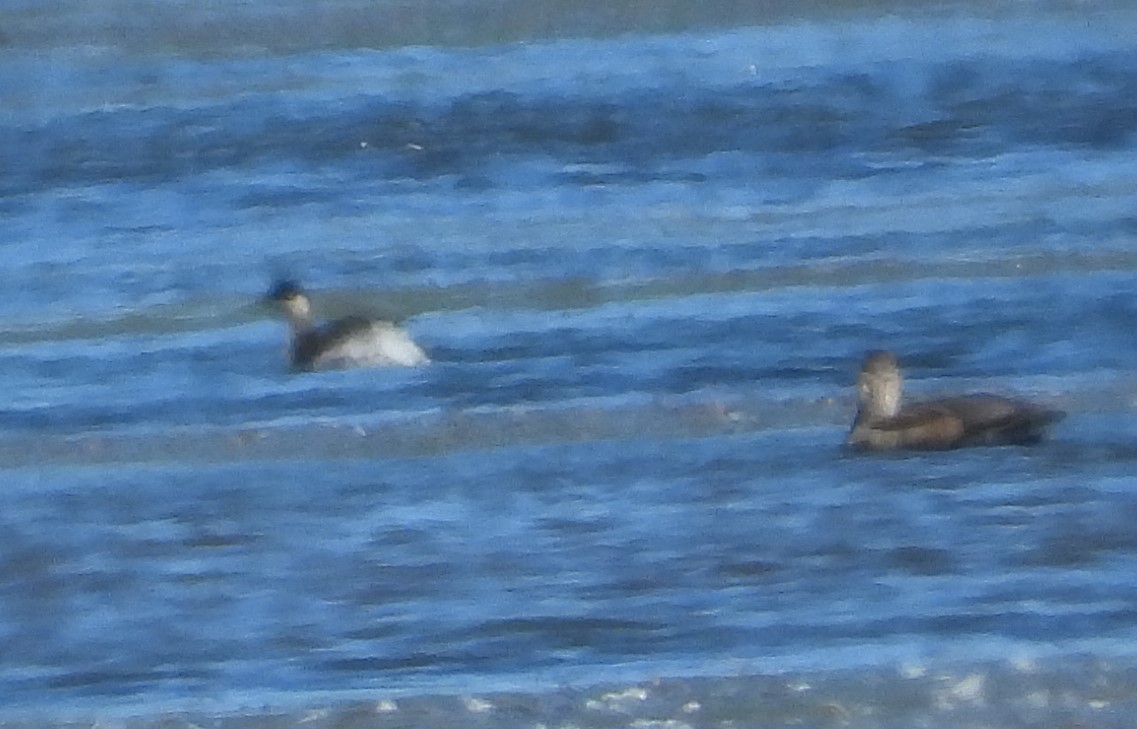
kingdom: Animalia
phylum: Chordata
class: Aves
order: Podicipediformes
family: Podicipedidae
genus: Podiceps
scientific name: Podiceps nigricollis
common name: Black-necked grebe
